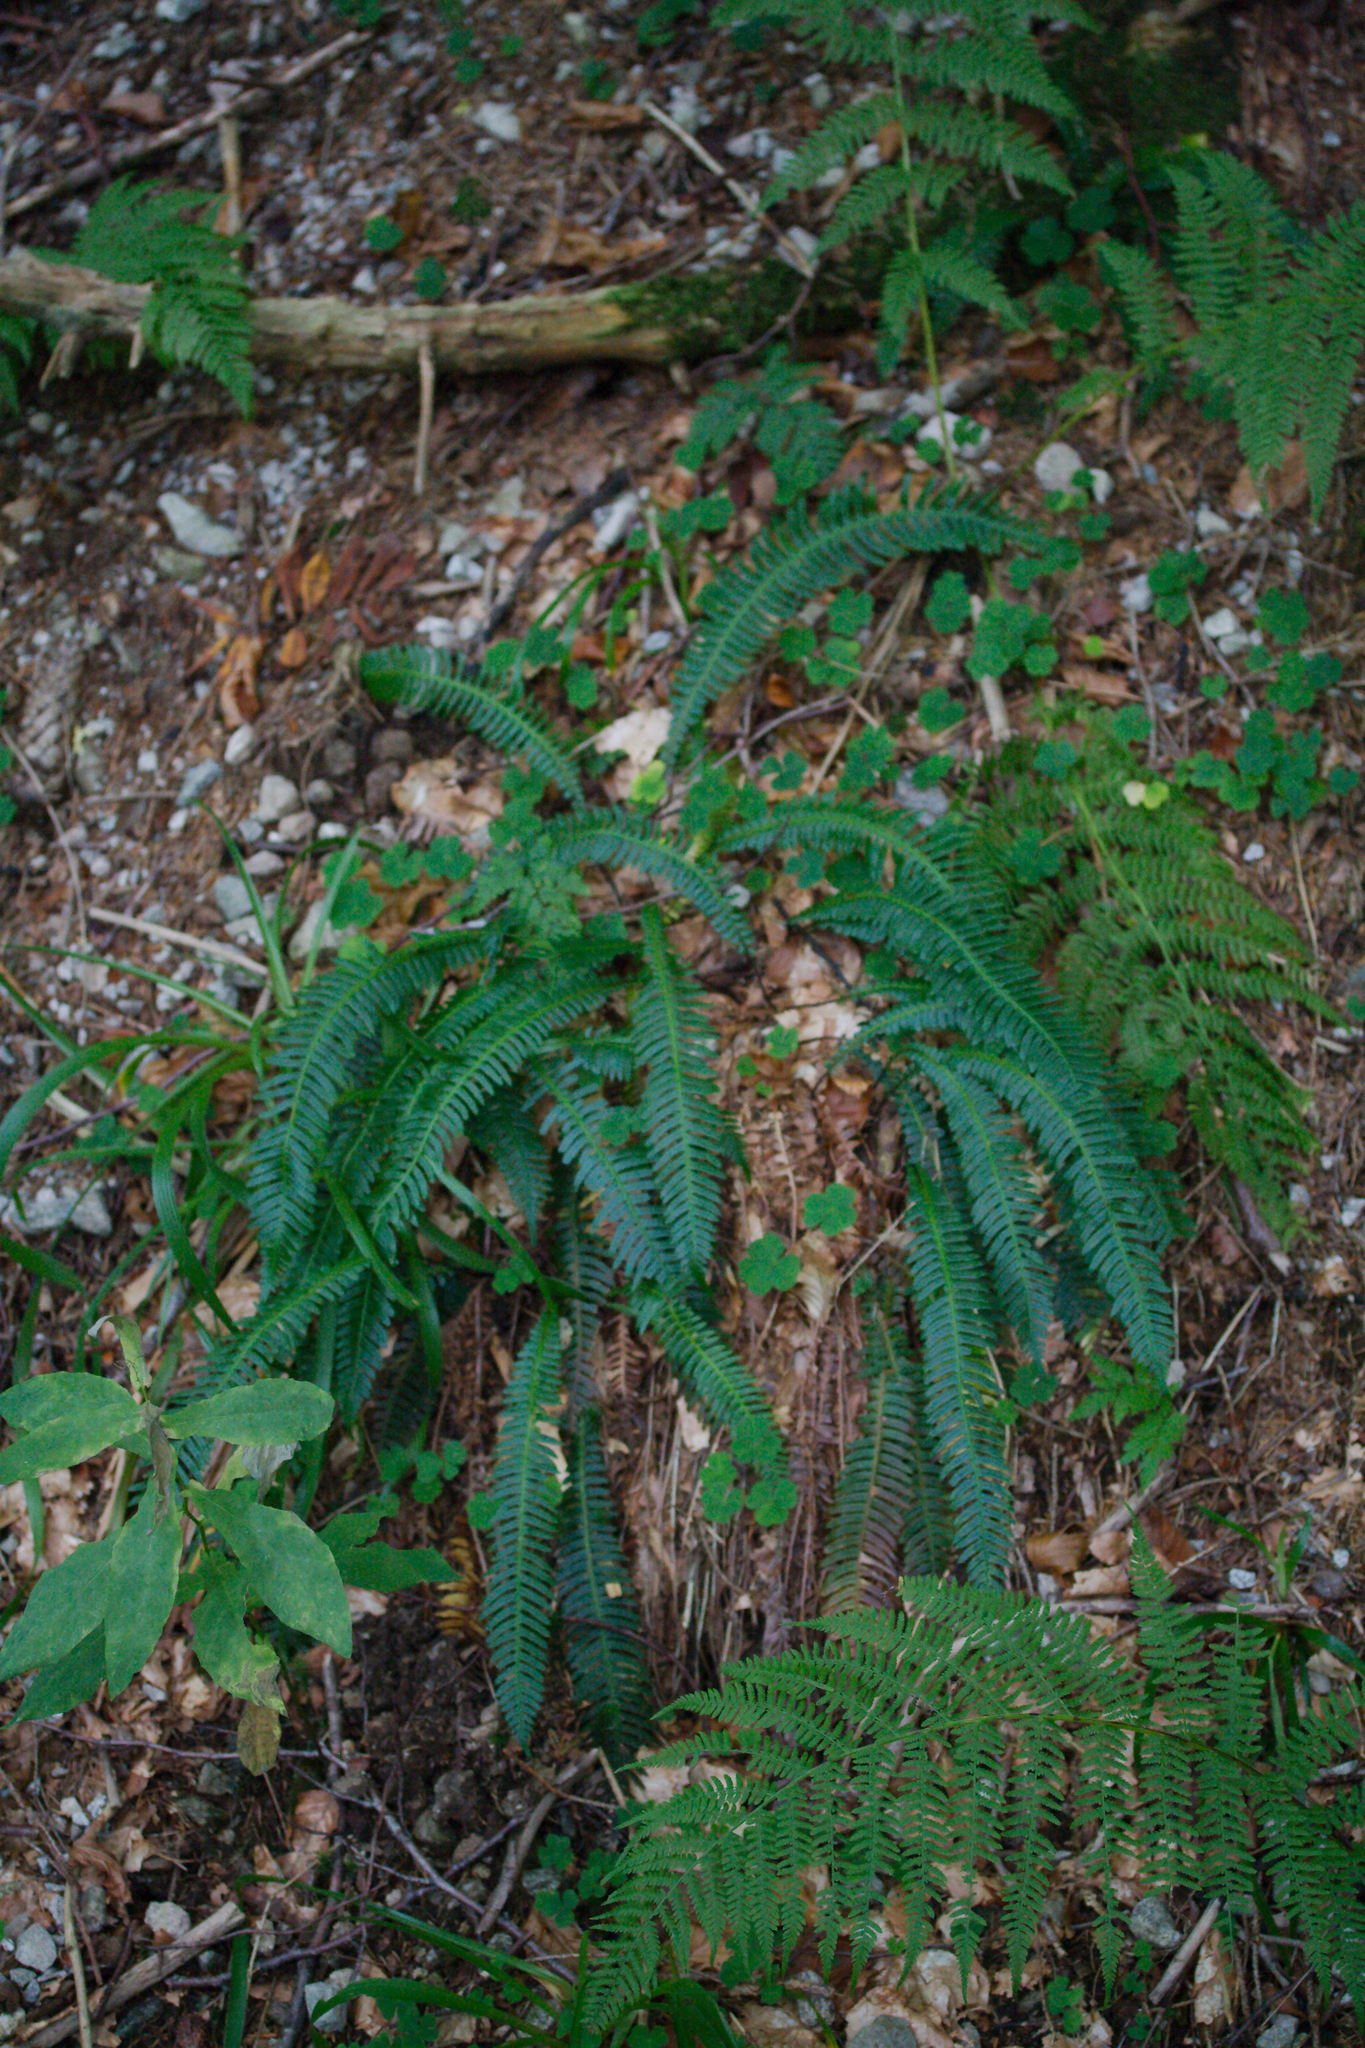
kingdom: Plantae
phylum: Tracheophyta
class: Polypodiopsida
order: Polypodiales
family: Blechnaceae
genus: Struthiopteris
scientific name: Struthiopteris spicant
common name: Deer fern
